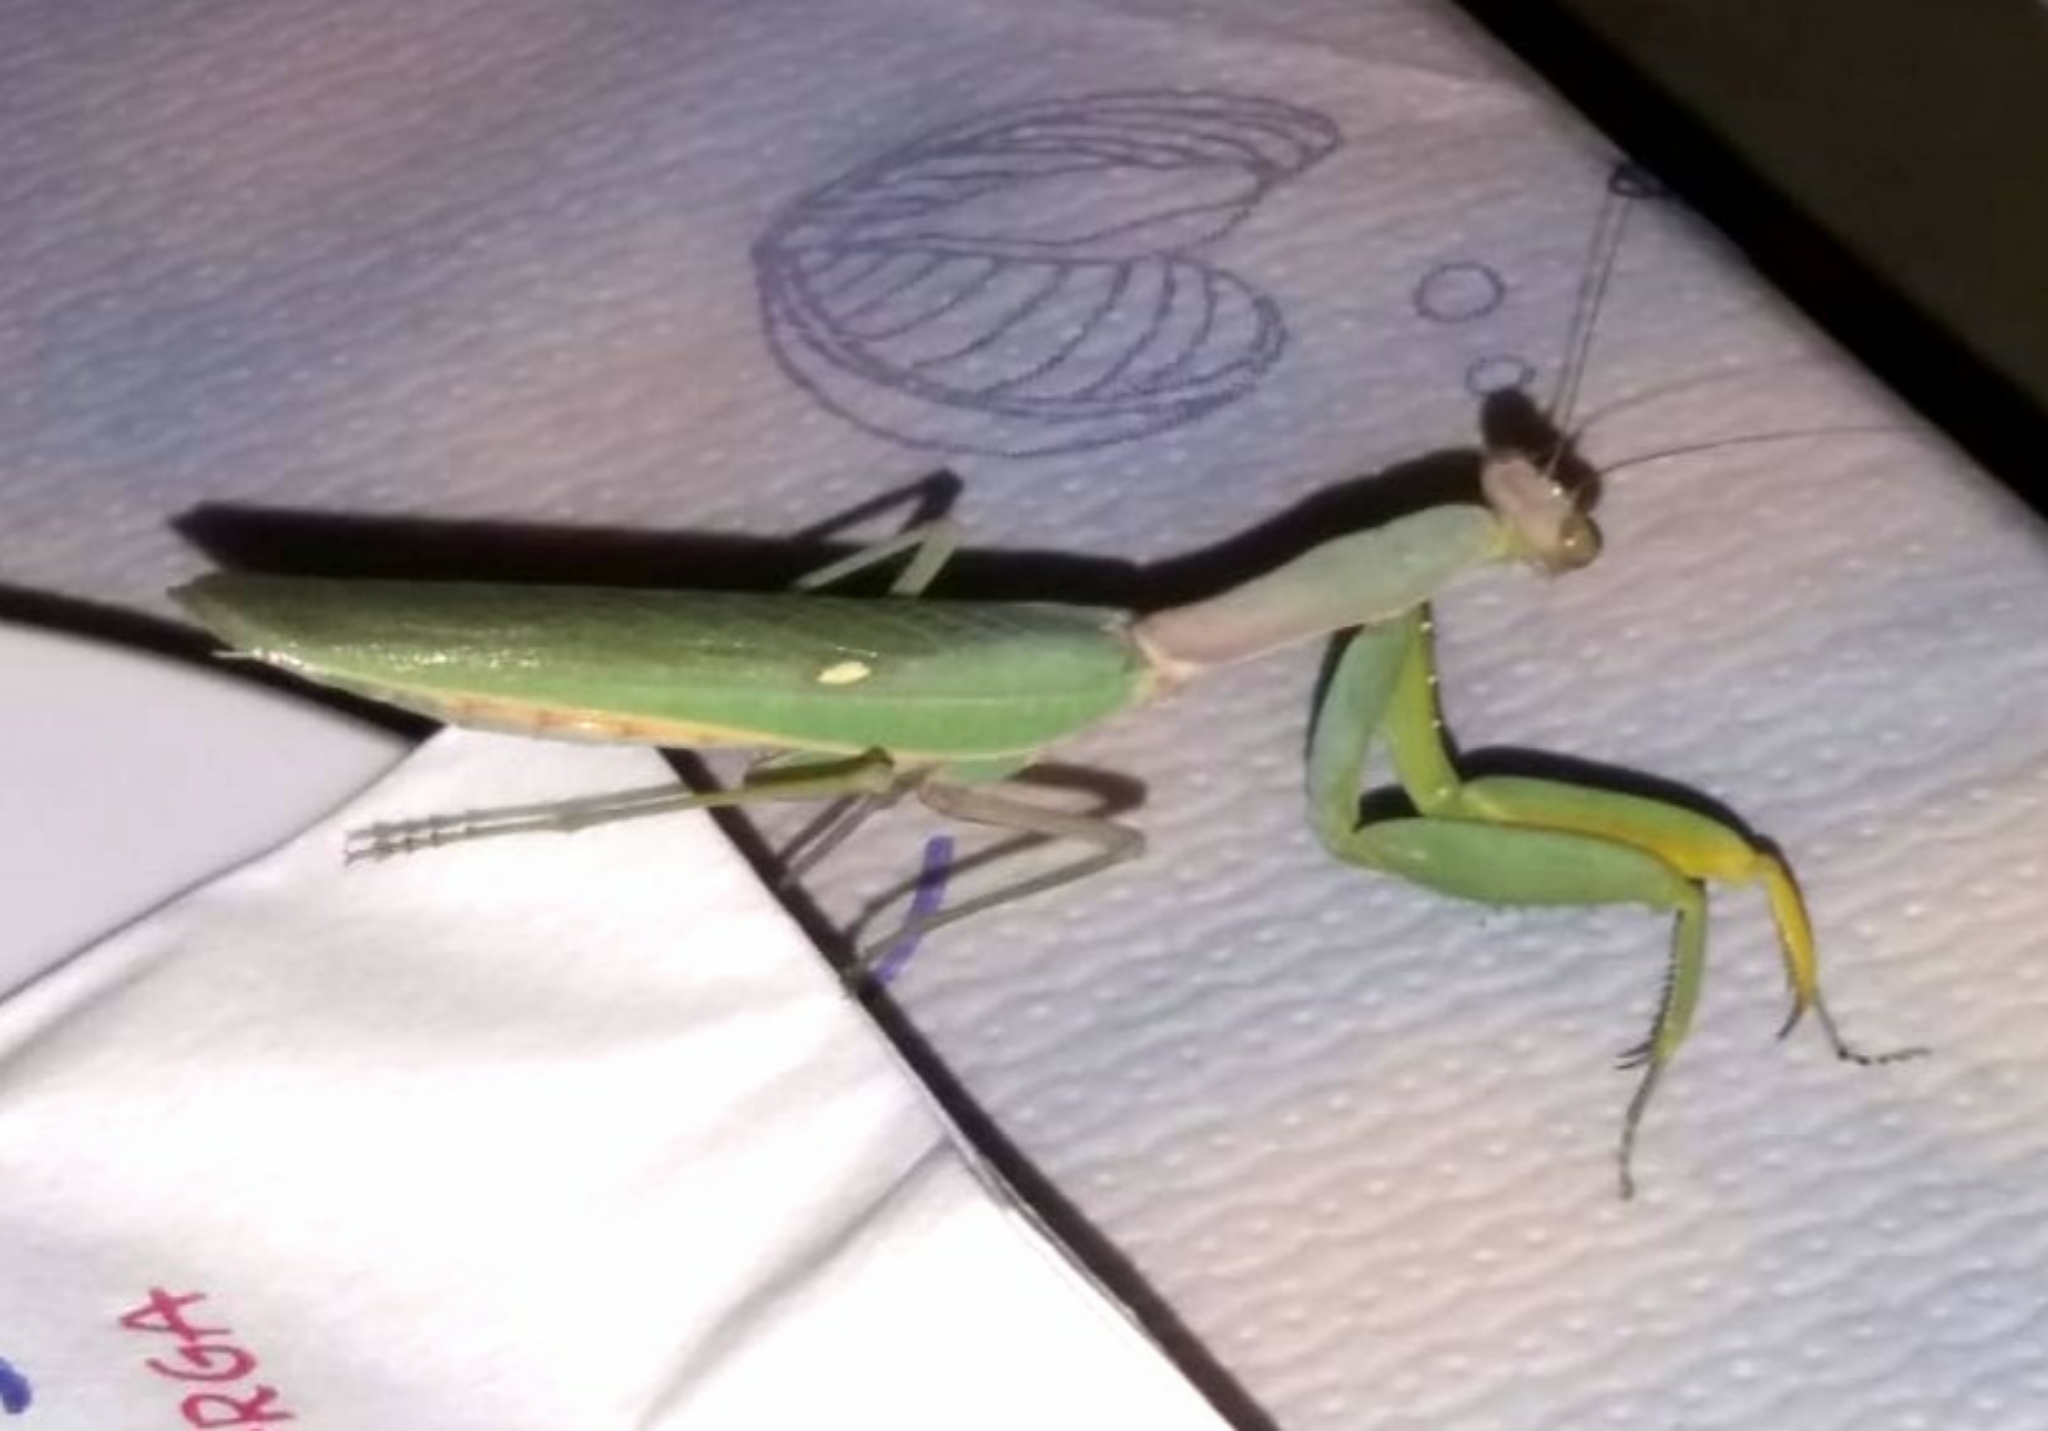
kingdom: Animalia
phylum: Arthropoda
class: Insecta
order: Mantodea
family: Mantidae
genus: Hierodula
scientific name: Hierodula transcaucasica
